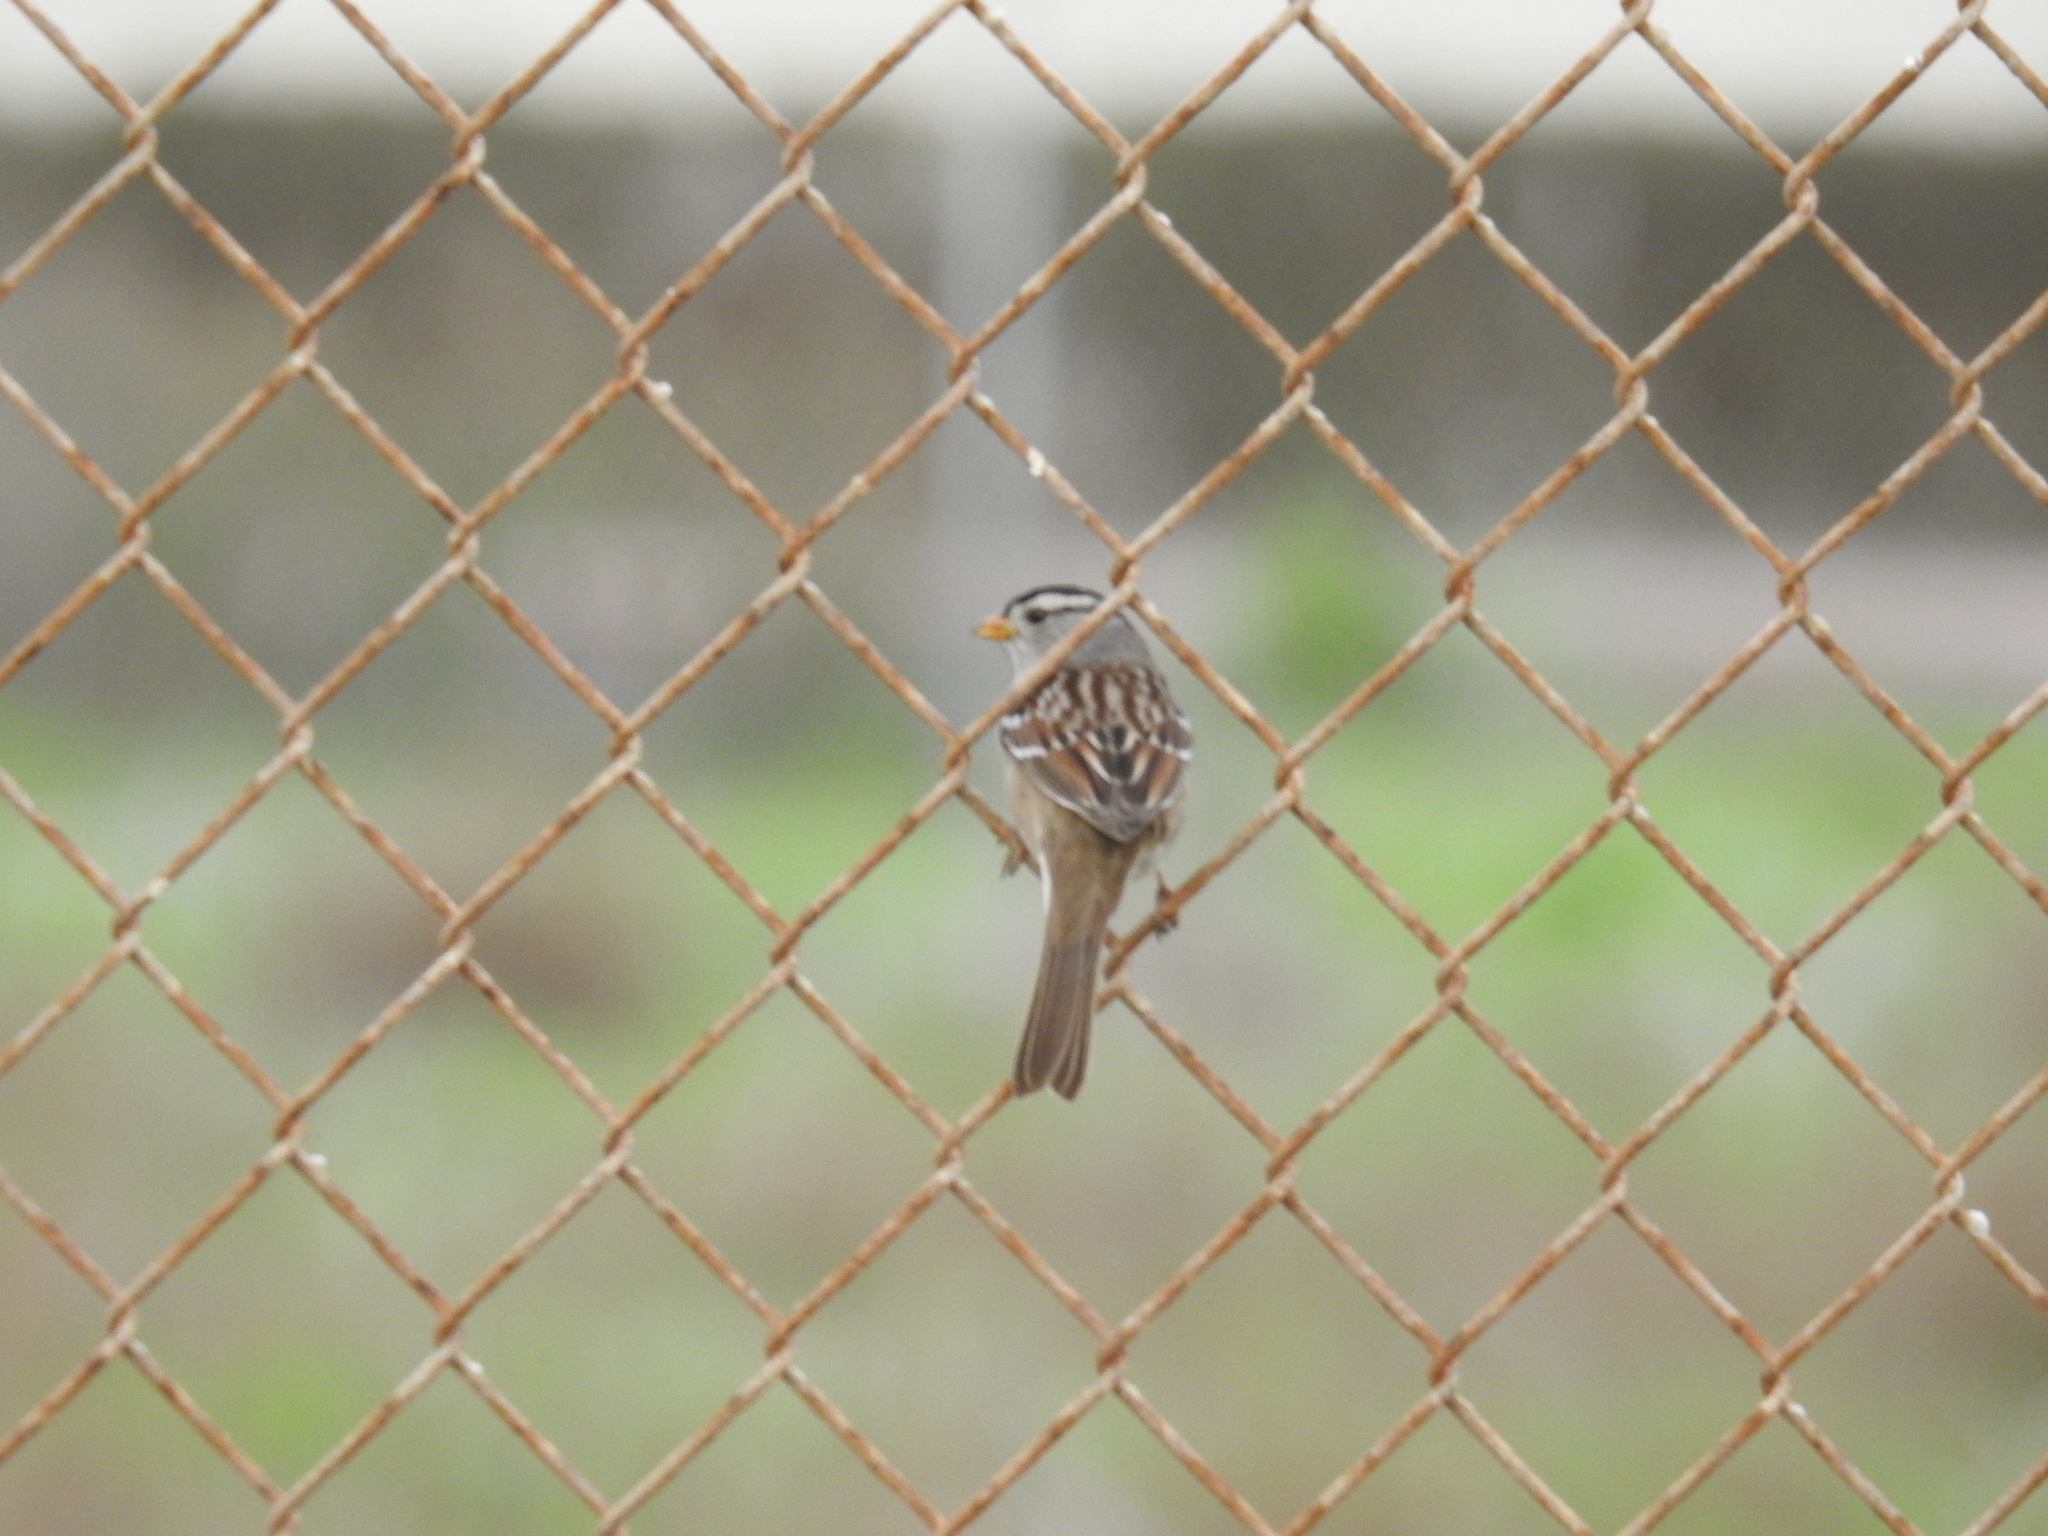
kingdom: Animalia
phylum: Chordata
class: Aves
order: Passeriformes
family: Passerellidae
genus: Zonotrichia
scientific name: Zonotrichia leucophrys
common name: White-crowned sparrow
